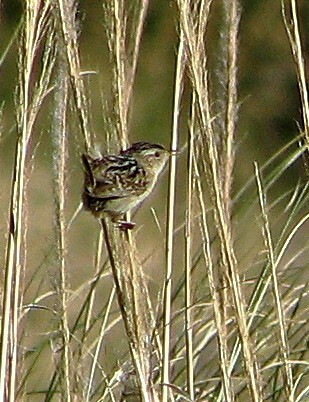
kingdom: Animalia
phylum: Chordata
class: Aves
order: Passeriformes
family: Troglodytidae
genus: Cistothorus
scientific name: Cistothorus platensis
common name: Sedge wren
